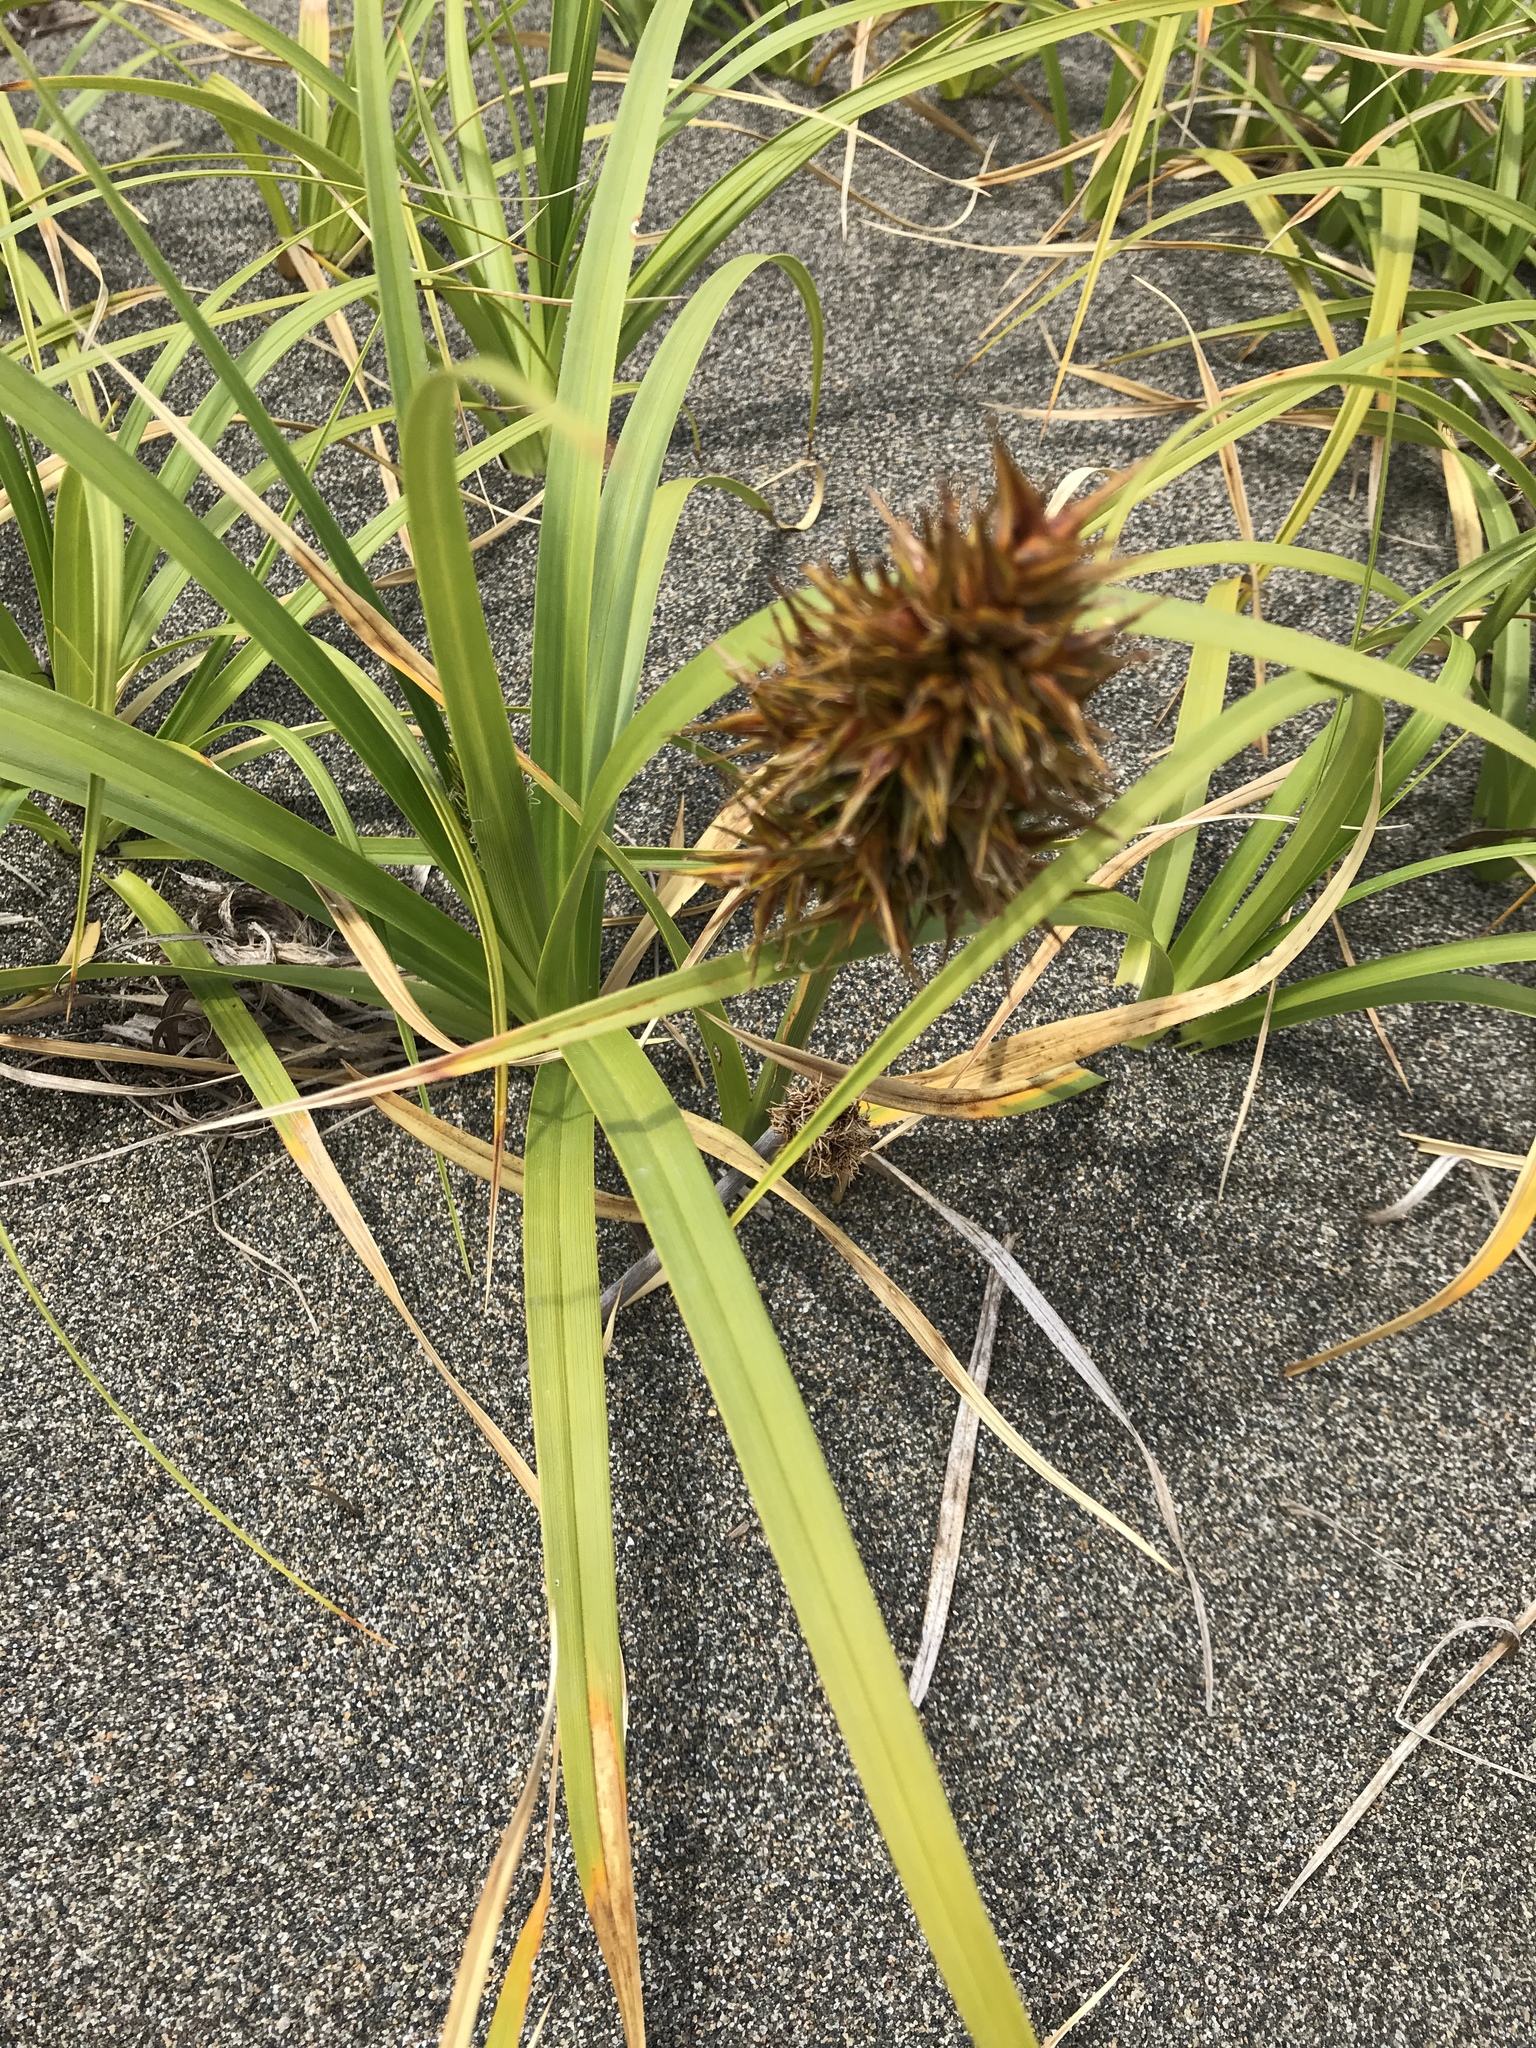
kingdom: Plantae
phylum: Tracheophyta
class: Liliopsida
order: Poales
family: Cyperaceae
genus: Carex
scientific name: Carex macrocephala
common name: Large-head sedge
